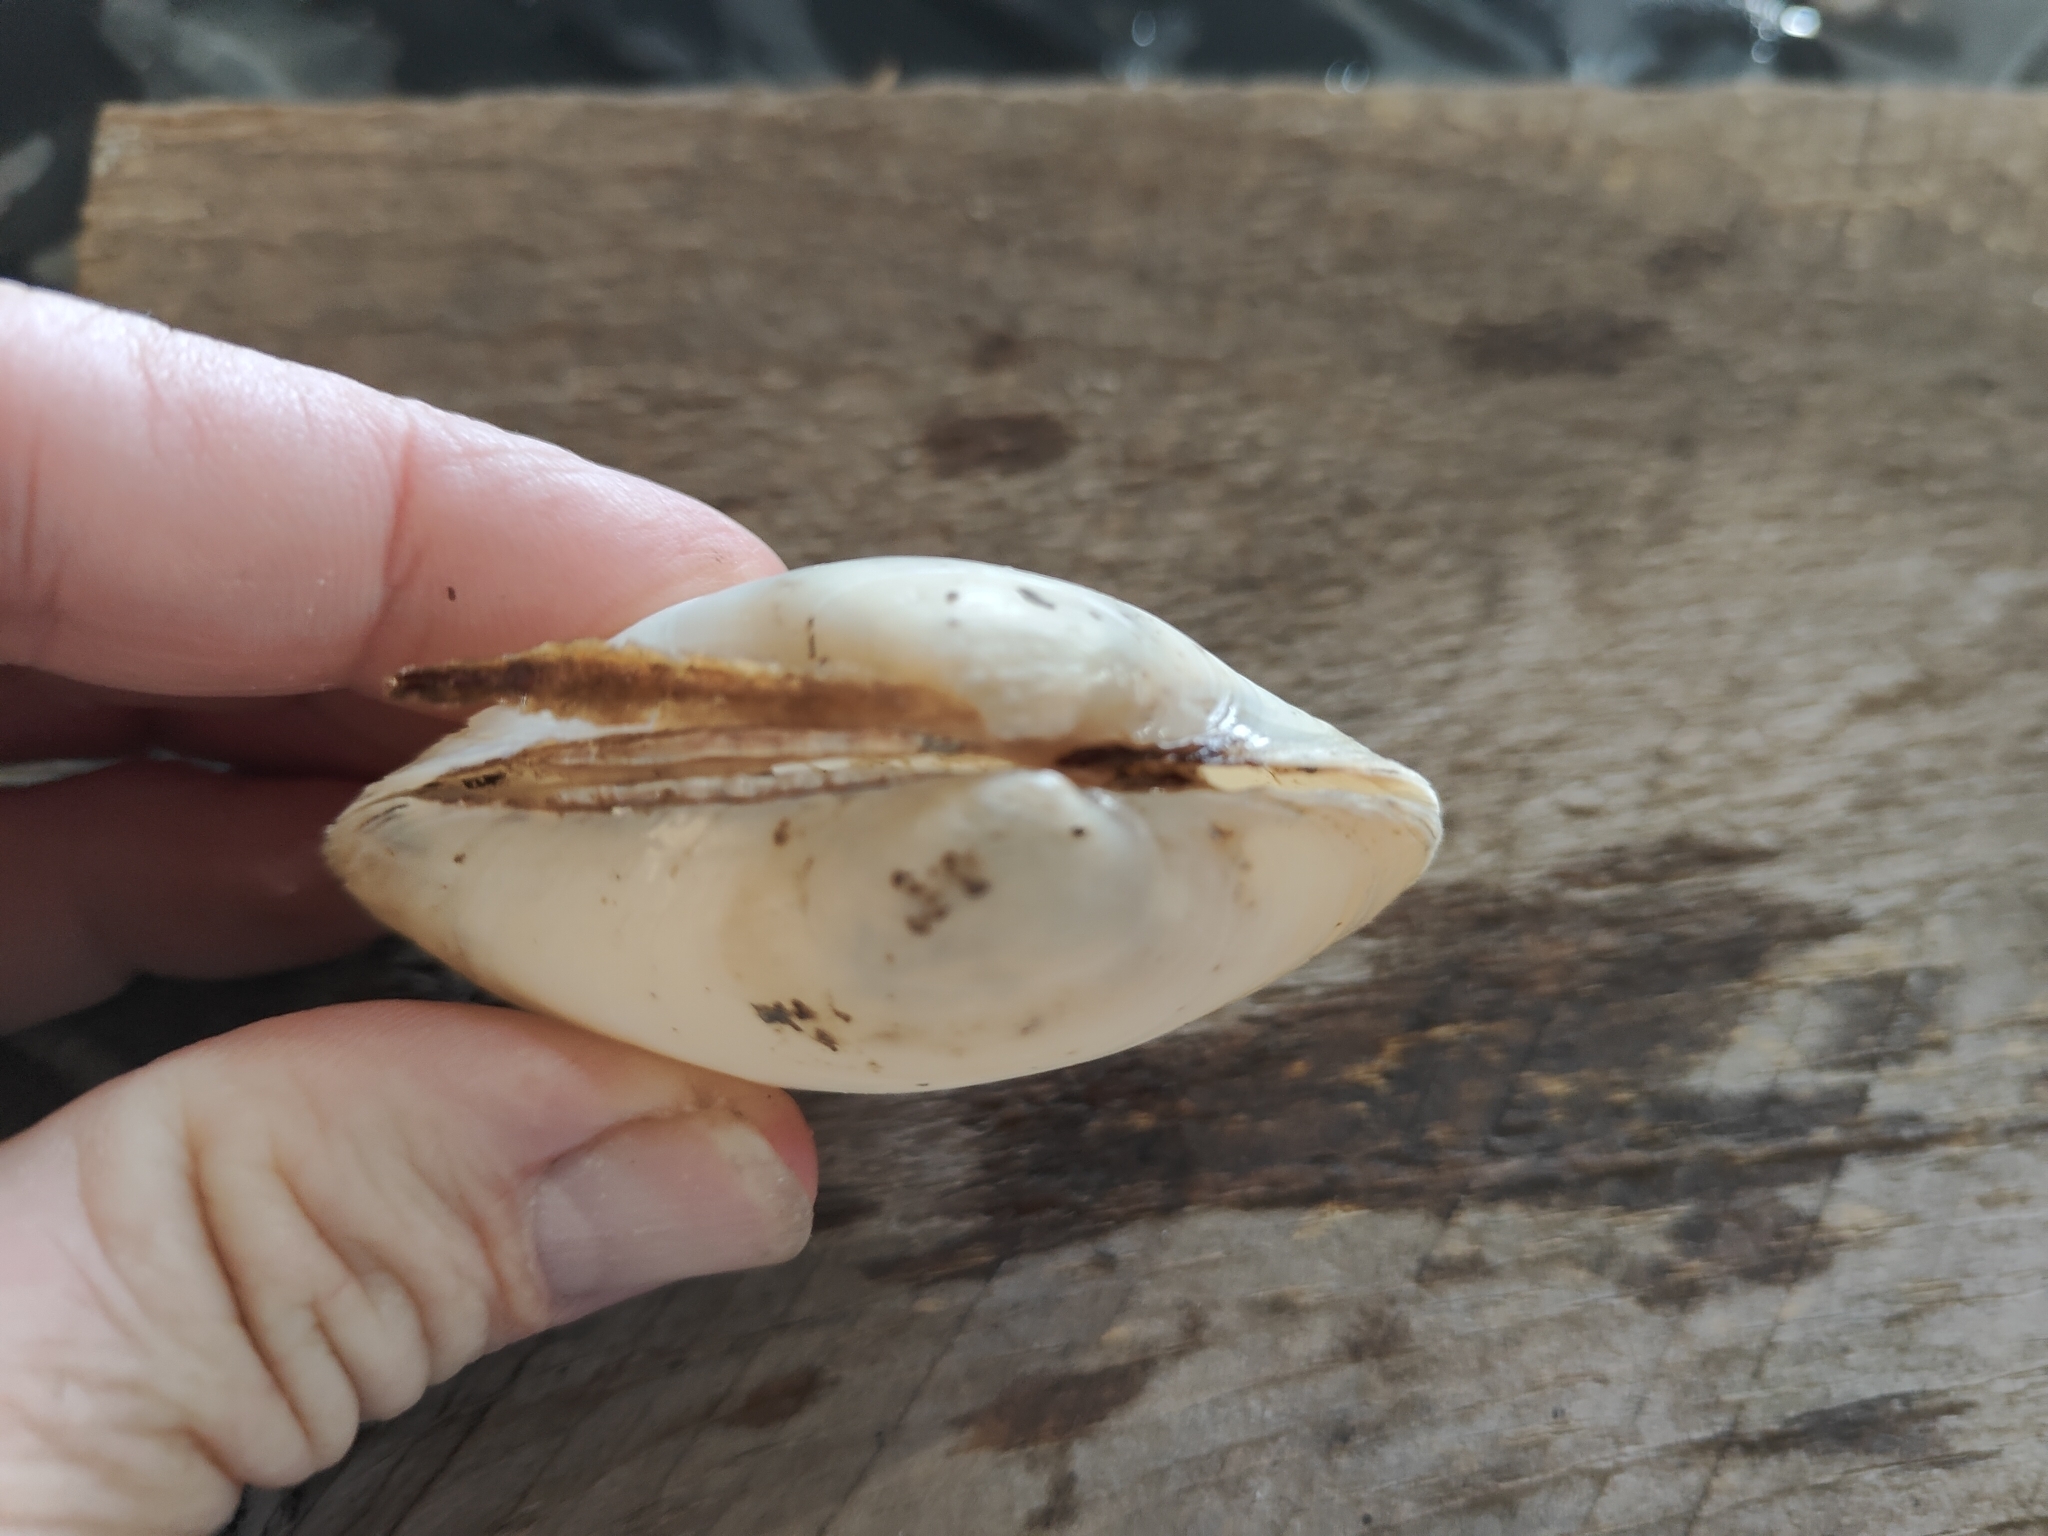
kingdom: Animalia
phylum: Mollusca
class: Bivalvia
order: Unionida
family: Unionidae
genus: Lampsilis
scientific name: Lampsilis cardium
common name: Plain pocketbook
